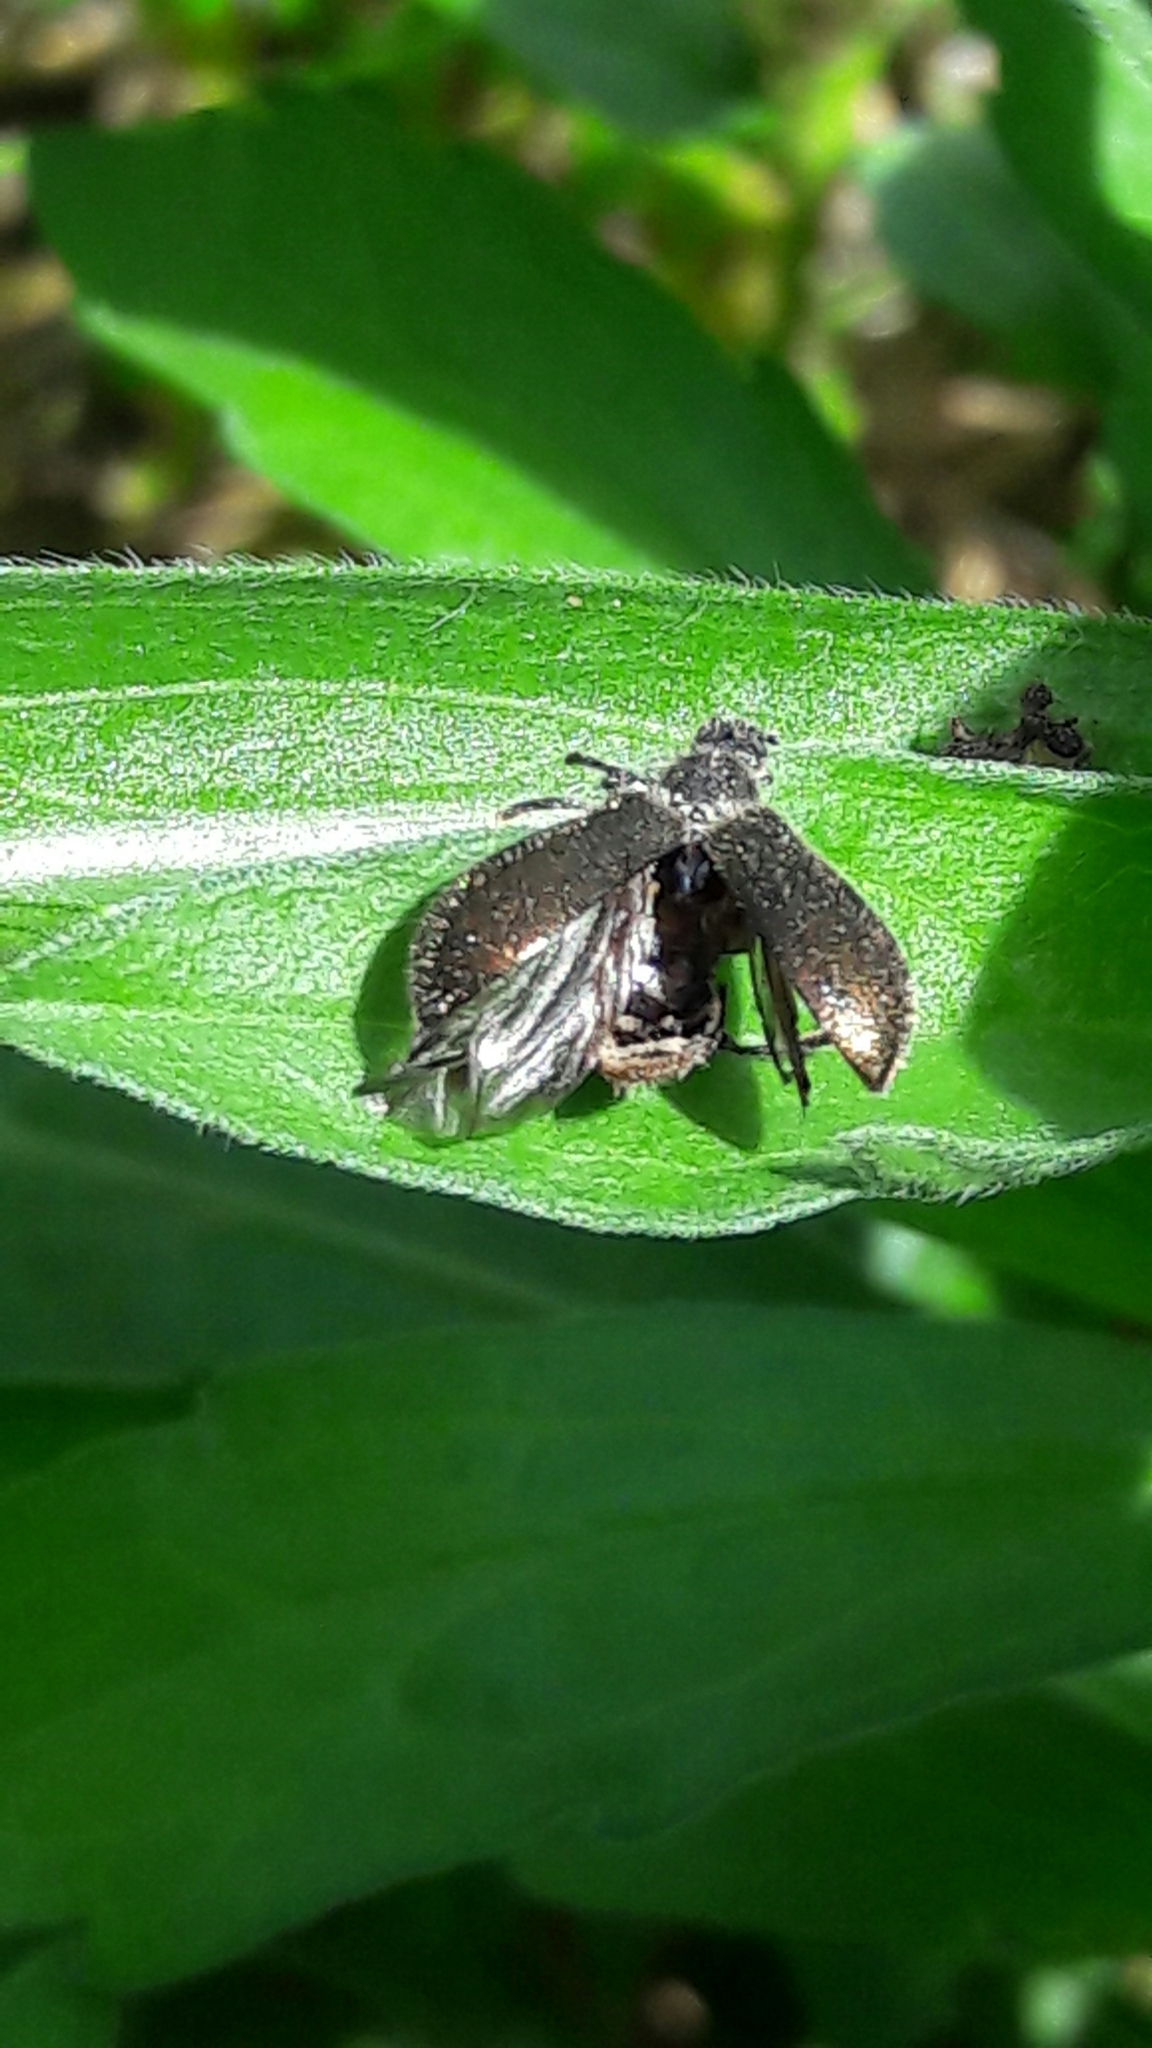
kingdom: Animalia
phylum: Arthropoda
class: Insecta
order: Coleoptera
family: Tenebrionidae
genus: Lagria
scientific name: Lagria villosa
